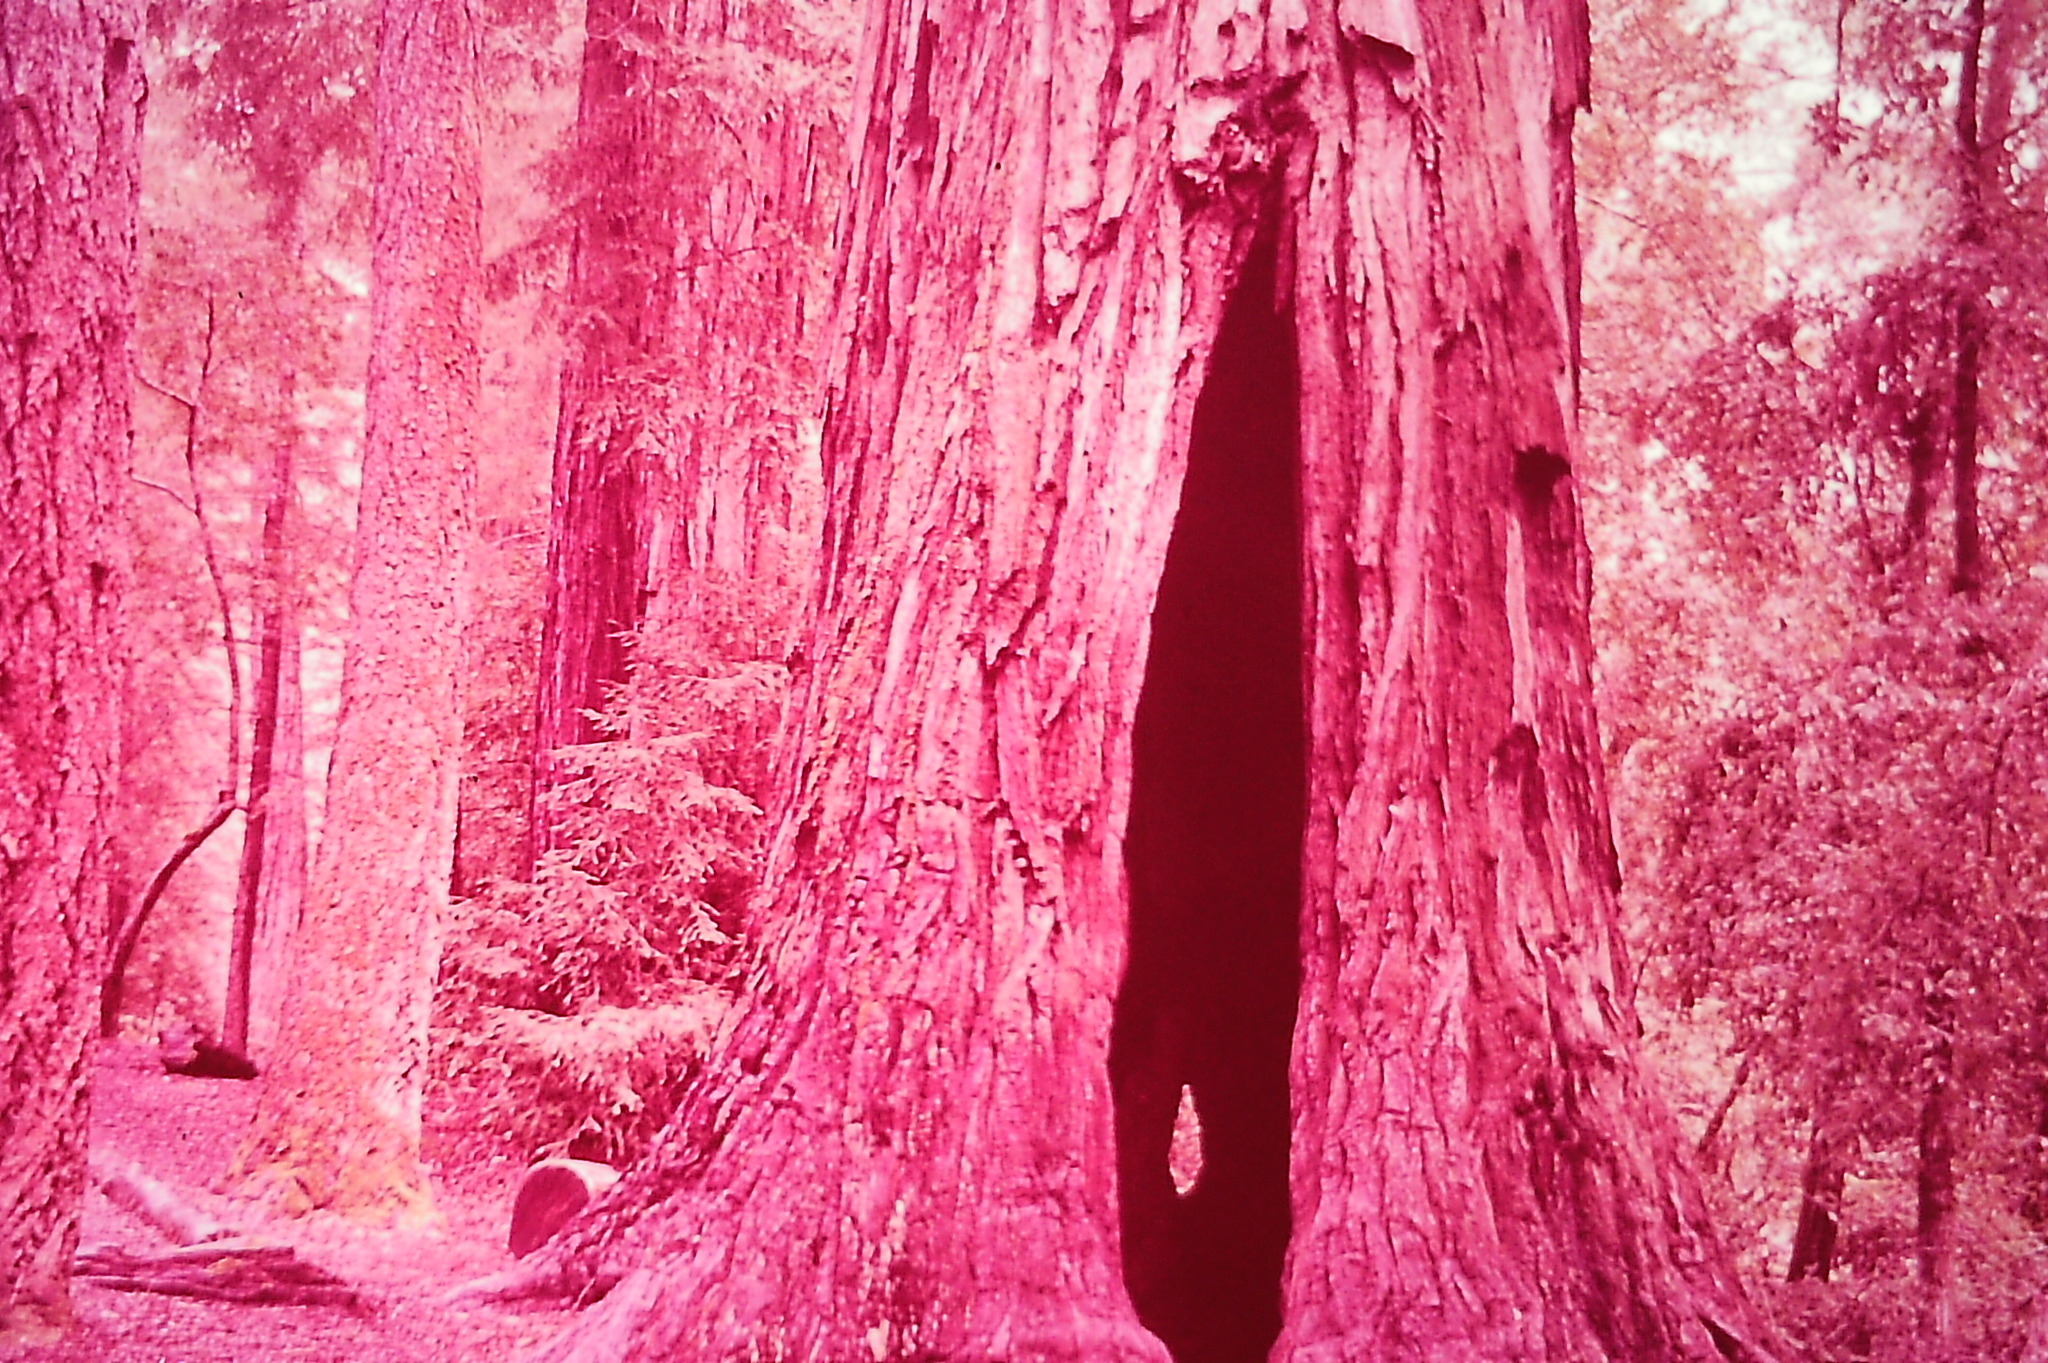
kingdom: Plantae
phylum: Tracheophyta
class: Pinopsida
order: Pinales
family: Cupressaceae
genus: Sequoia
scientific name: Sequoia sempervirens
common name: Coast redwood
